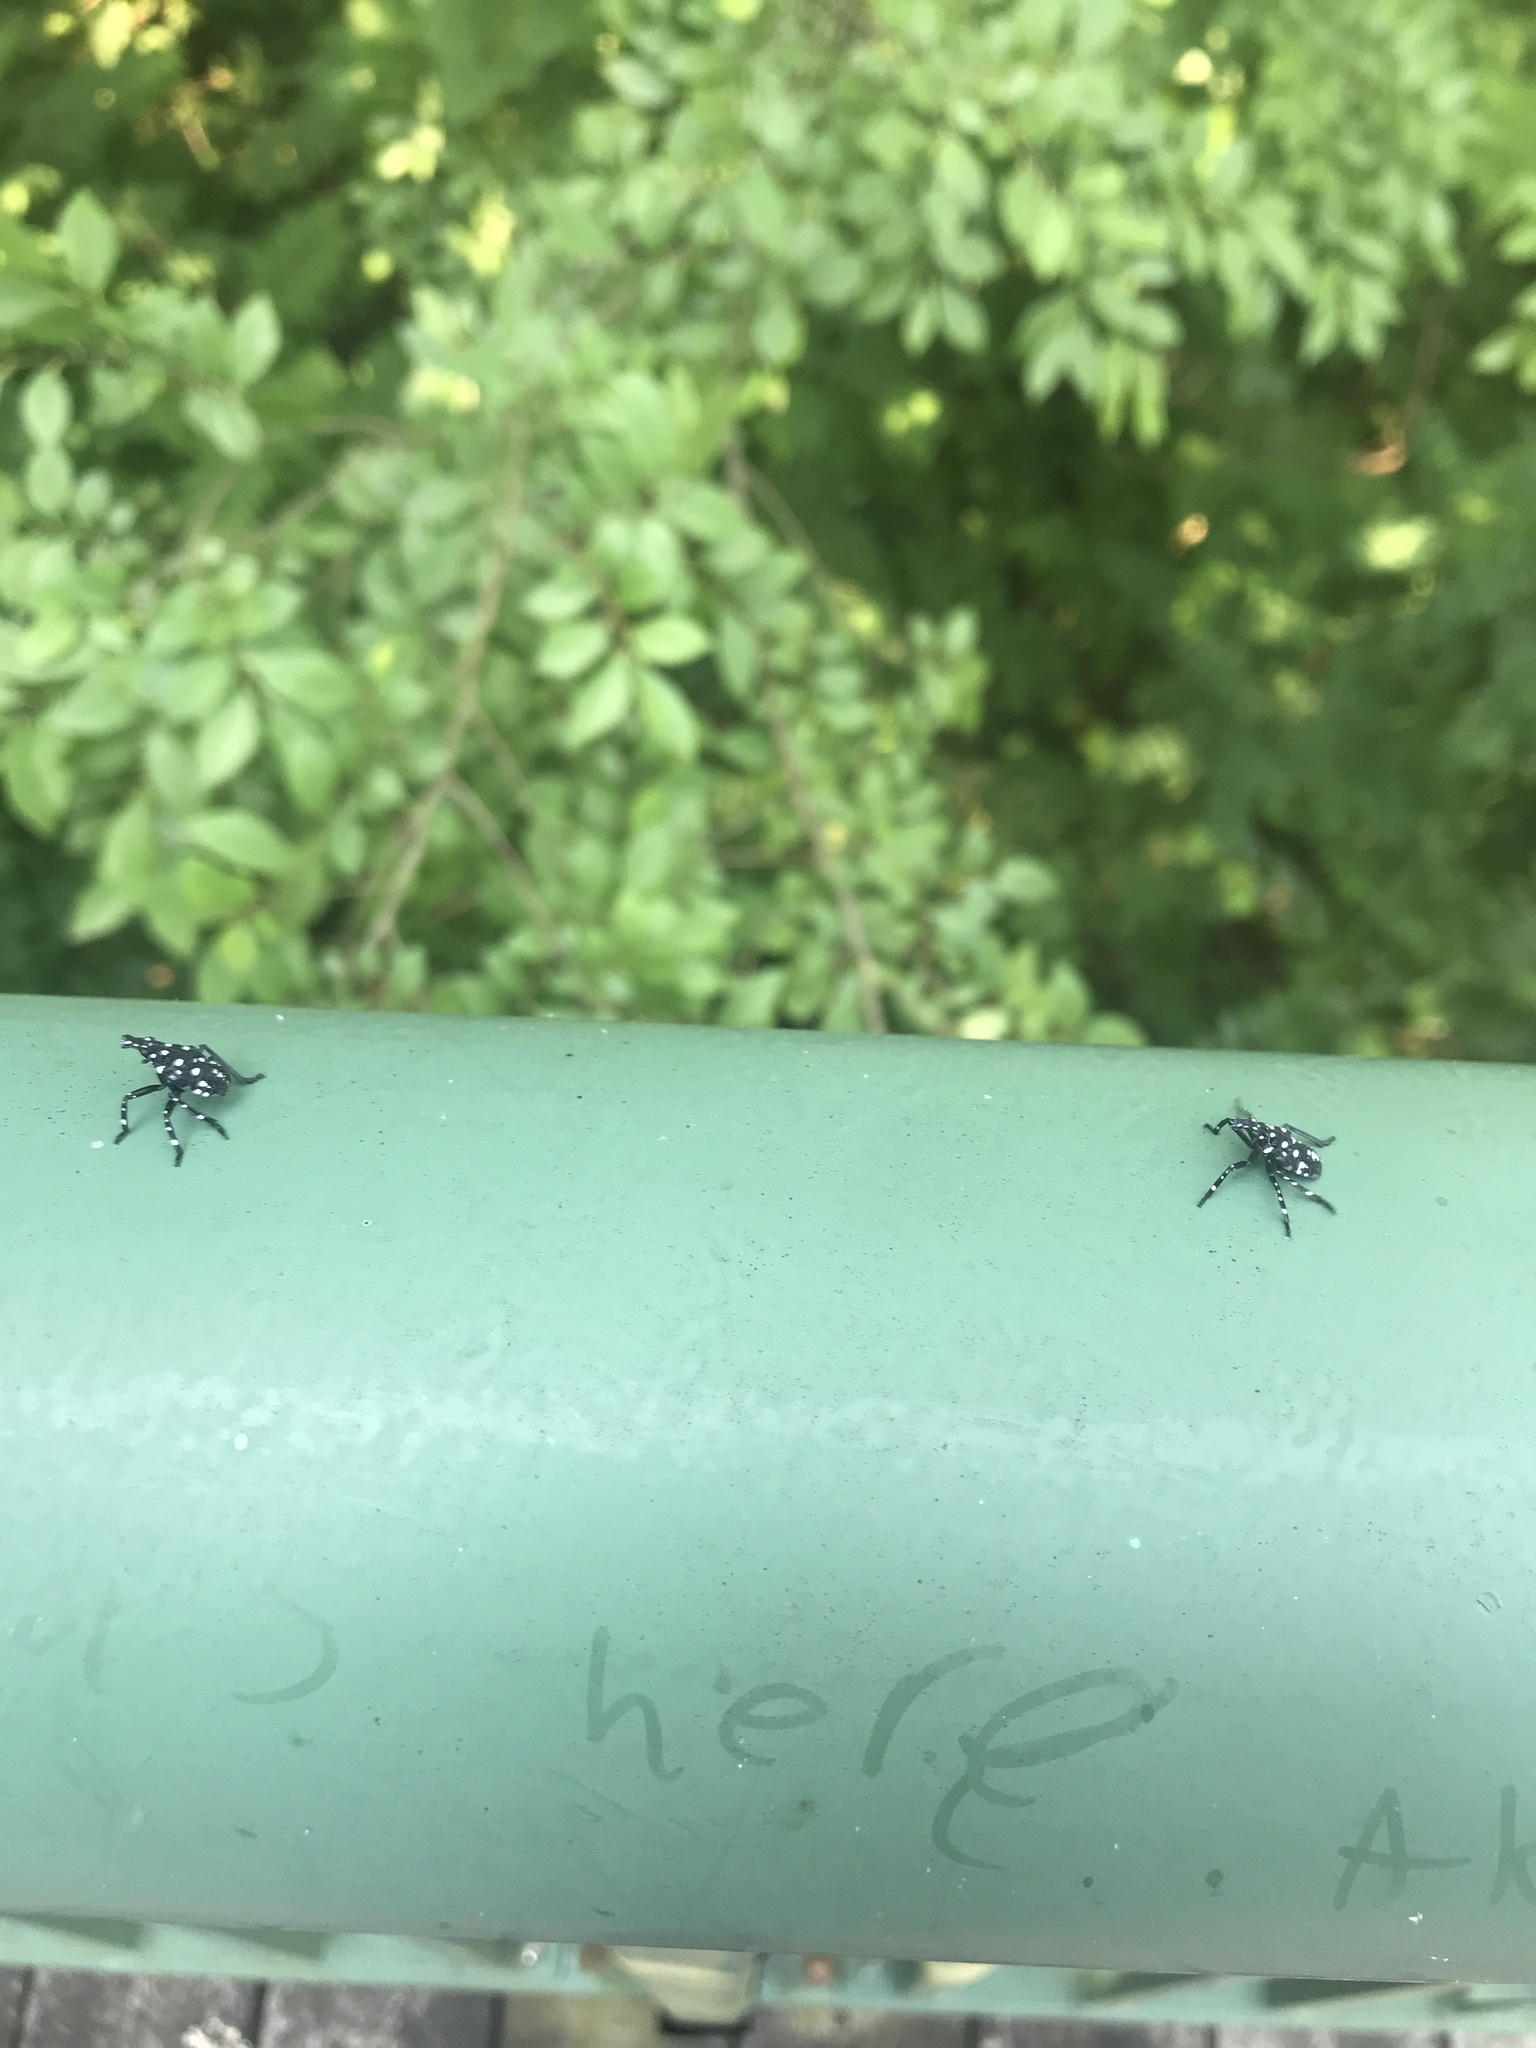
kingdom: Animalia
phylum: Arthropoda
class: Insecta
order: Hemiptera
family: Fulgoridae
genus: Lycorma
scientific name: Lycorma delicatula
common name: Spotted lanternfly
